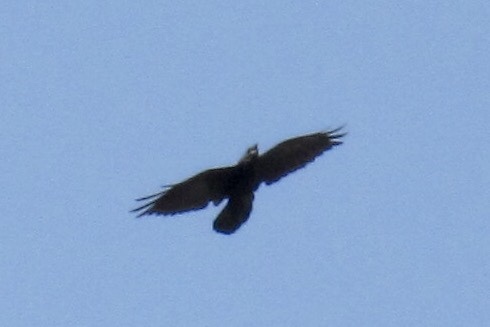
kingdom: Animalia
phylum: Chordata
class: Aves
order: Passeriformes
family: Corvidae
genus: Corvus
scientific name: Corvus corax
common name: Common raven
